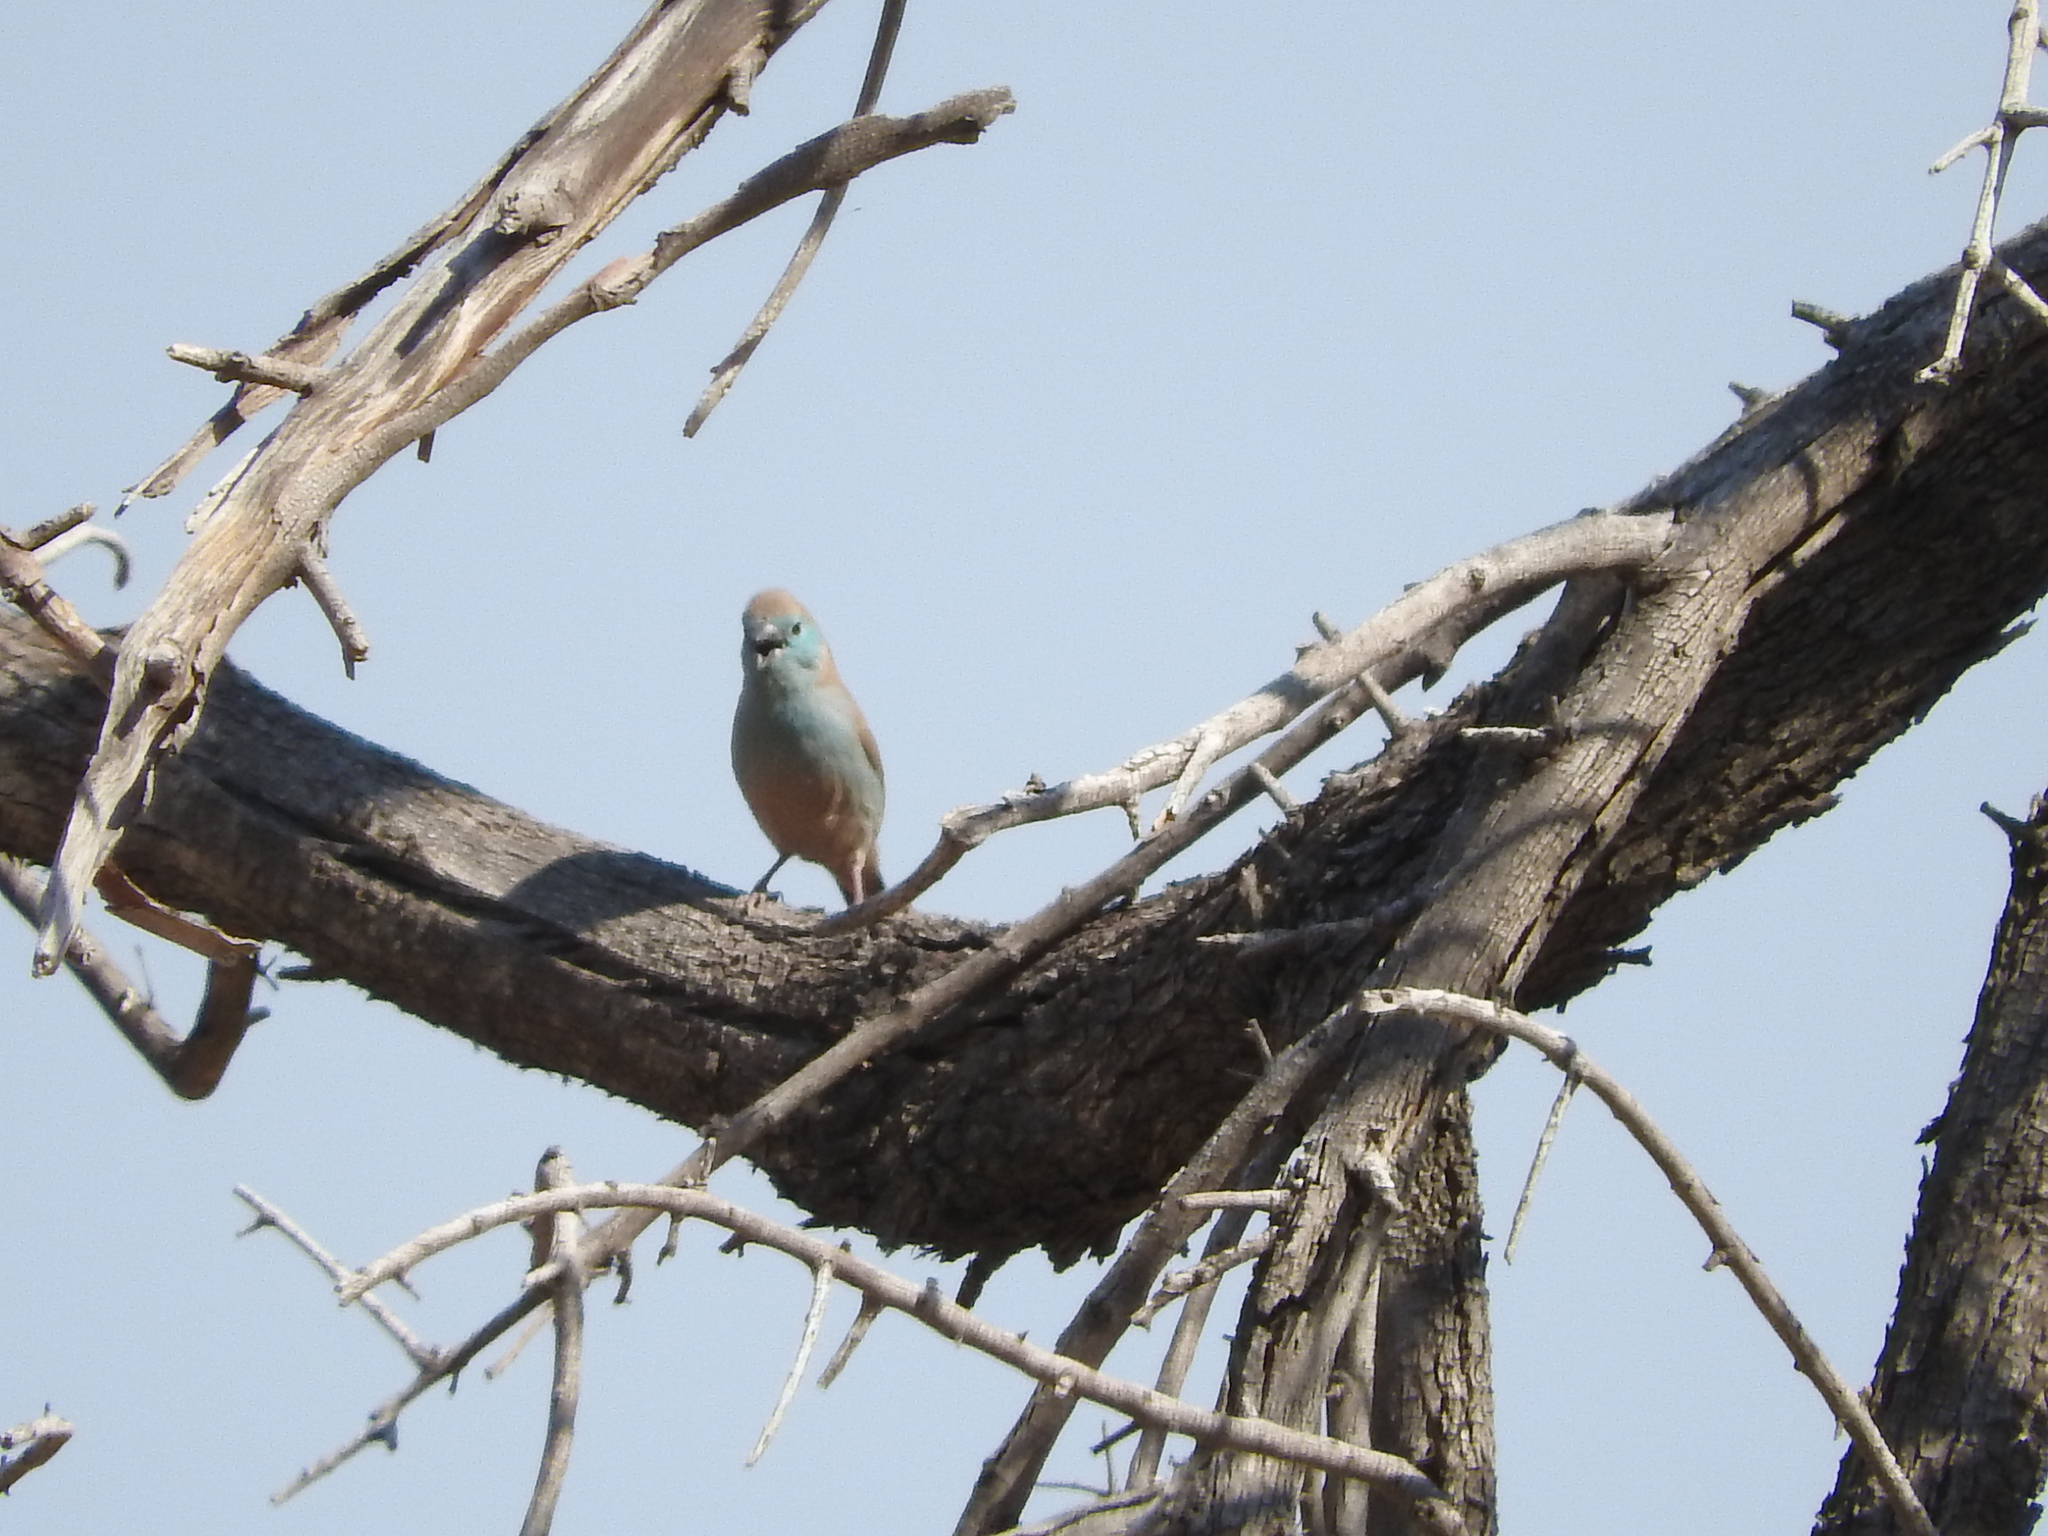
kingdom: Animalia
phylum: Chordata
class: Aves
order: Passeriformes
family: Estrildidae
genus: Uraeginthus
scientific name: Uraeginthus angolensis
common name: Blue waxbill
